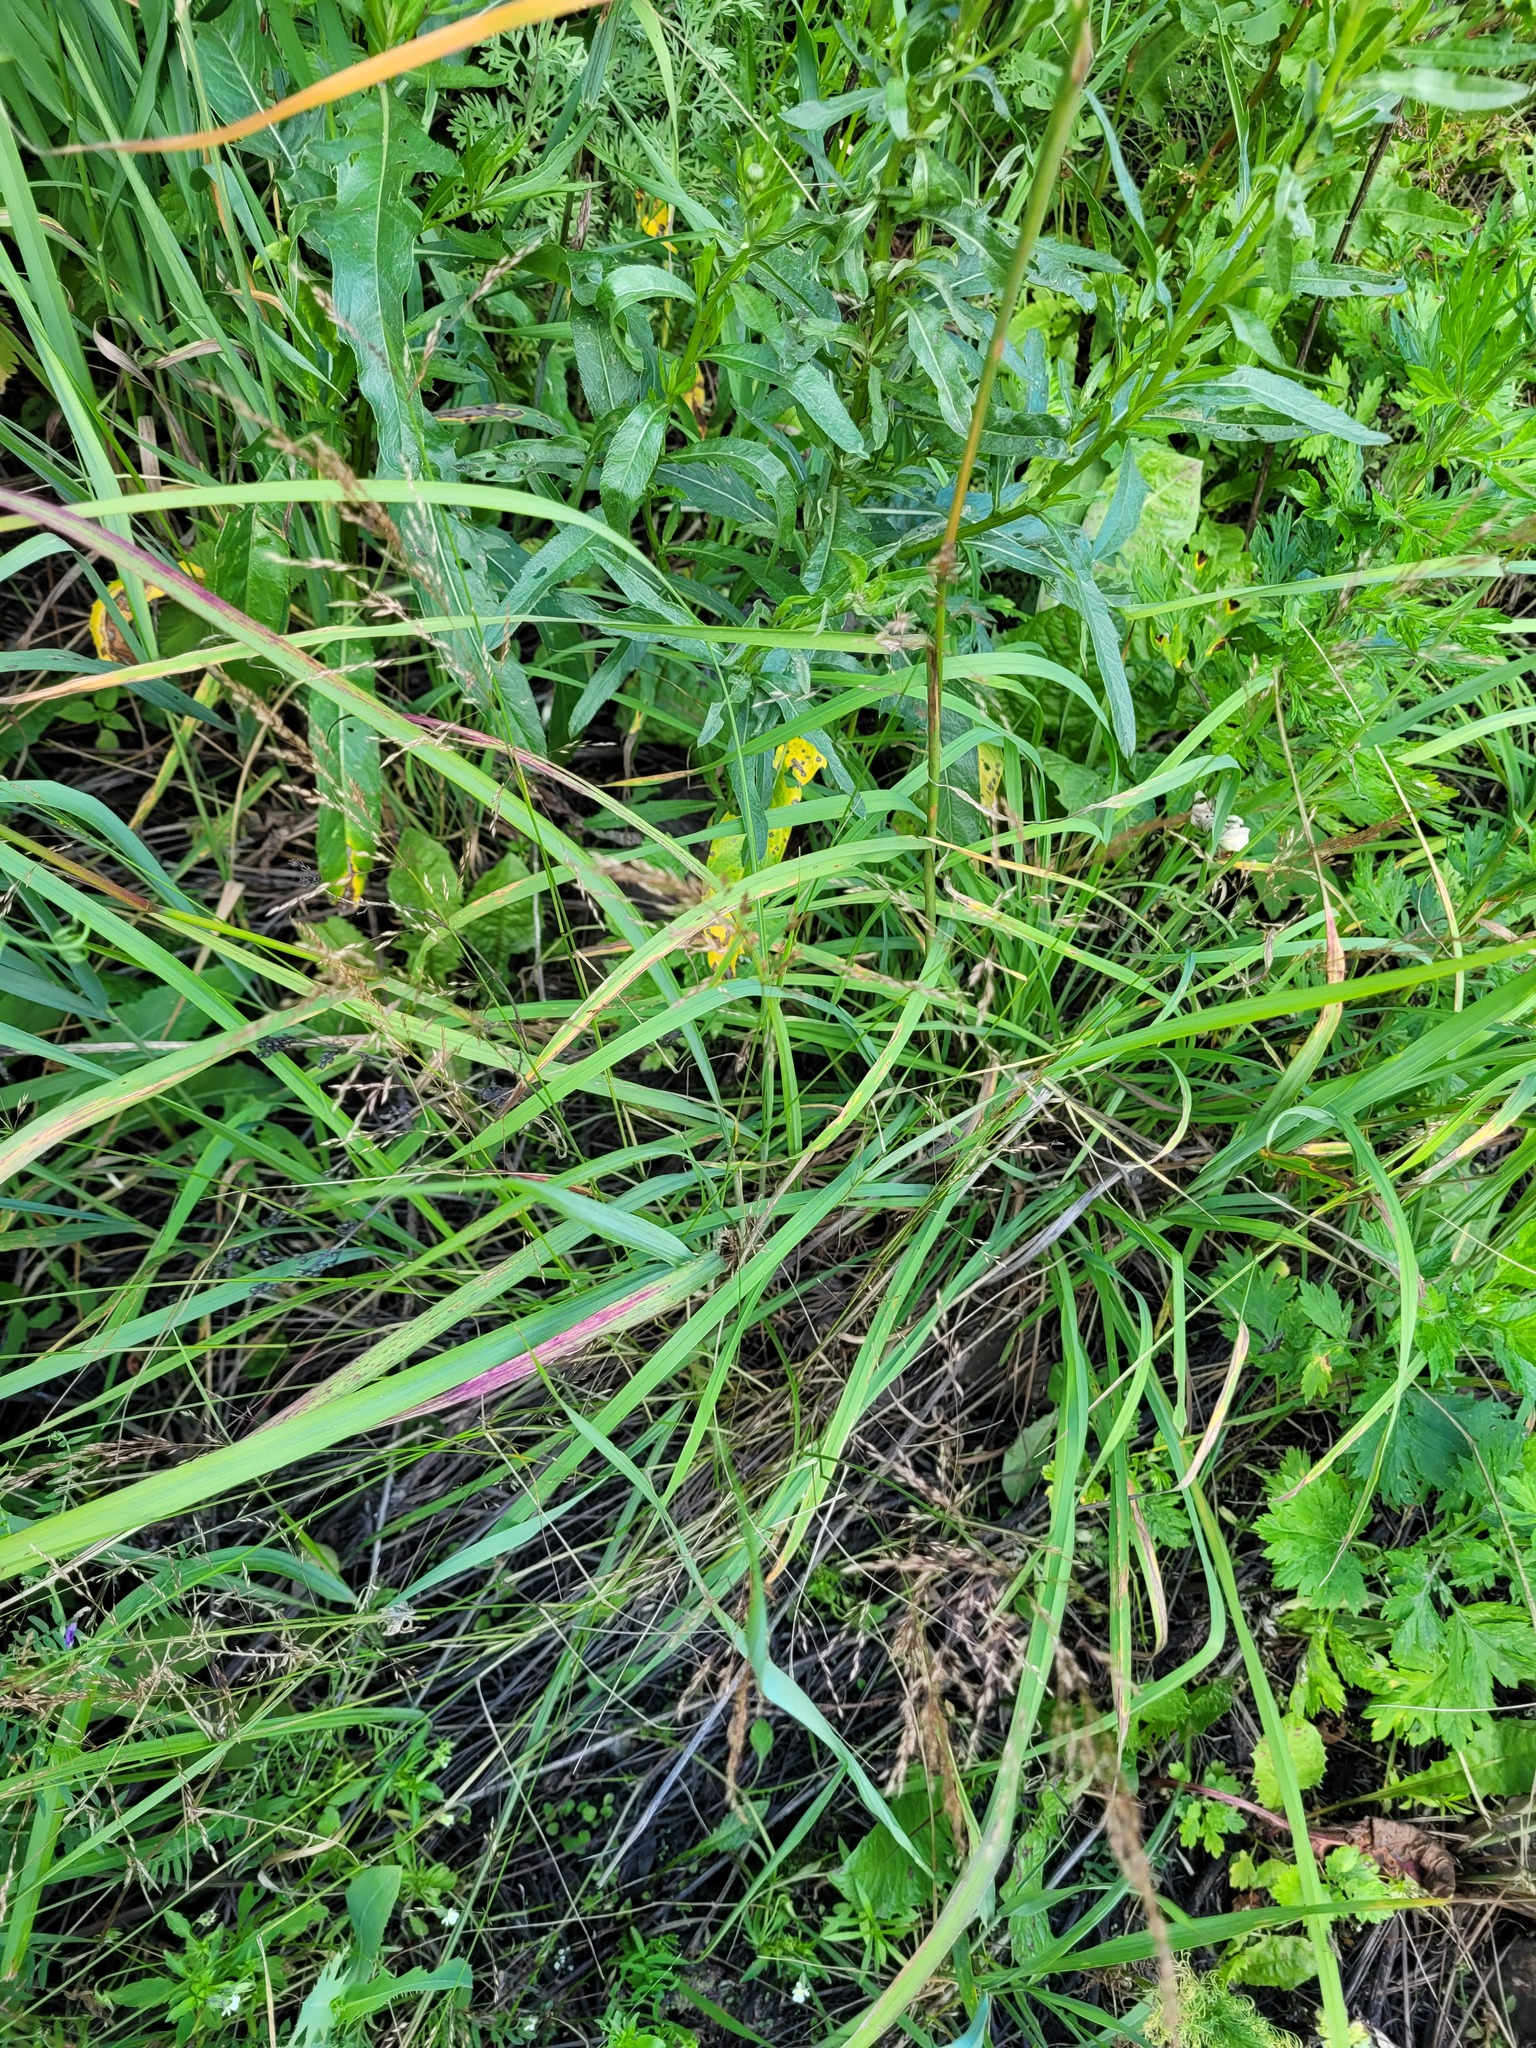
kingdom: Plantae
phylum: Tracheophyta
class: Liliopsida
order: Poales
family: Poaceae
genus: Poa
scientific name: Poa palustris
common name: Swamp meadow-grass
